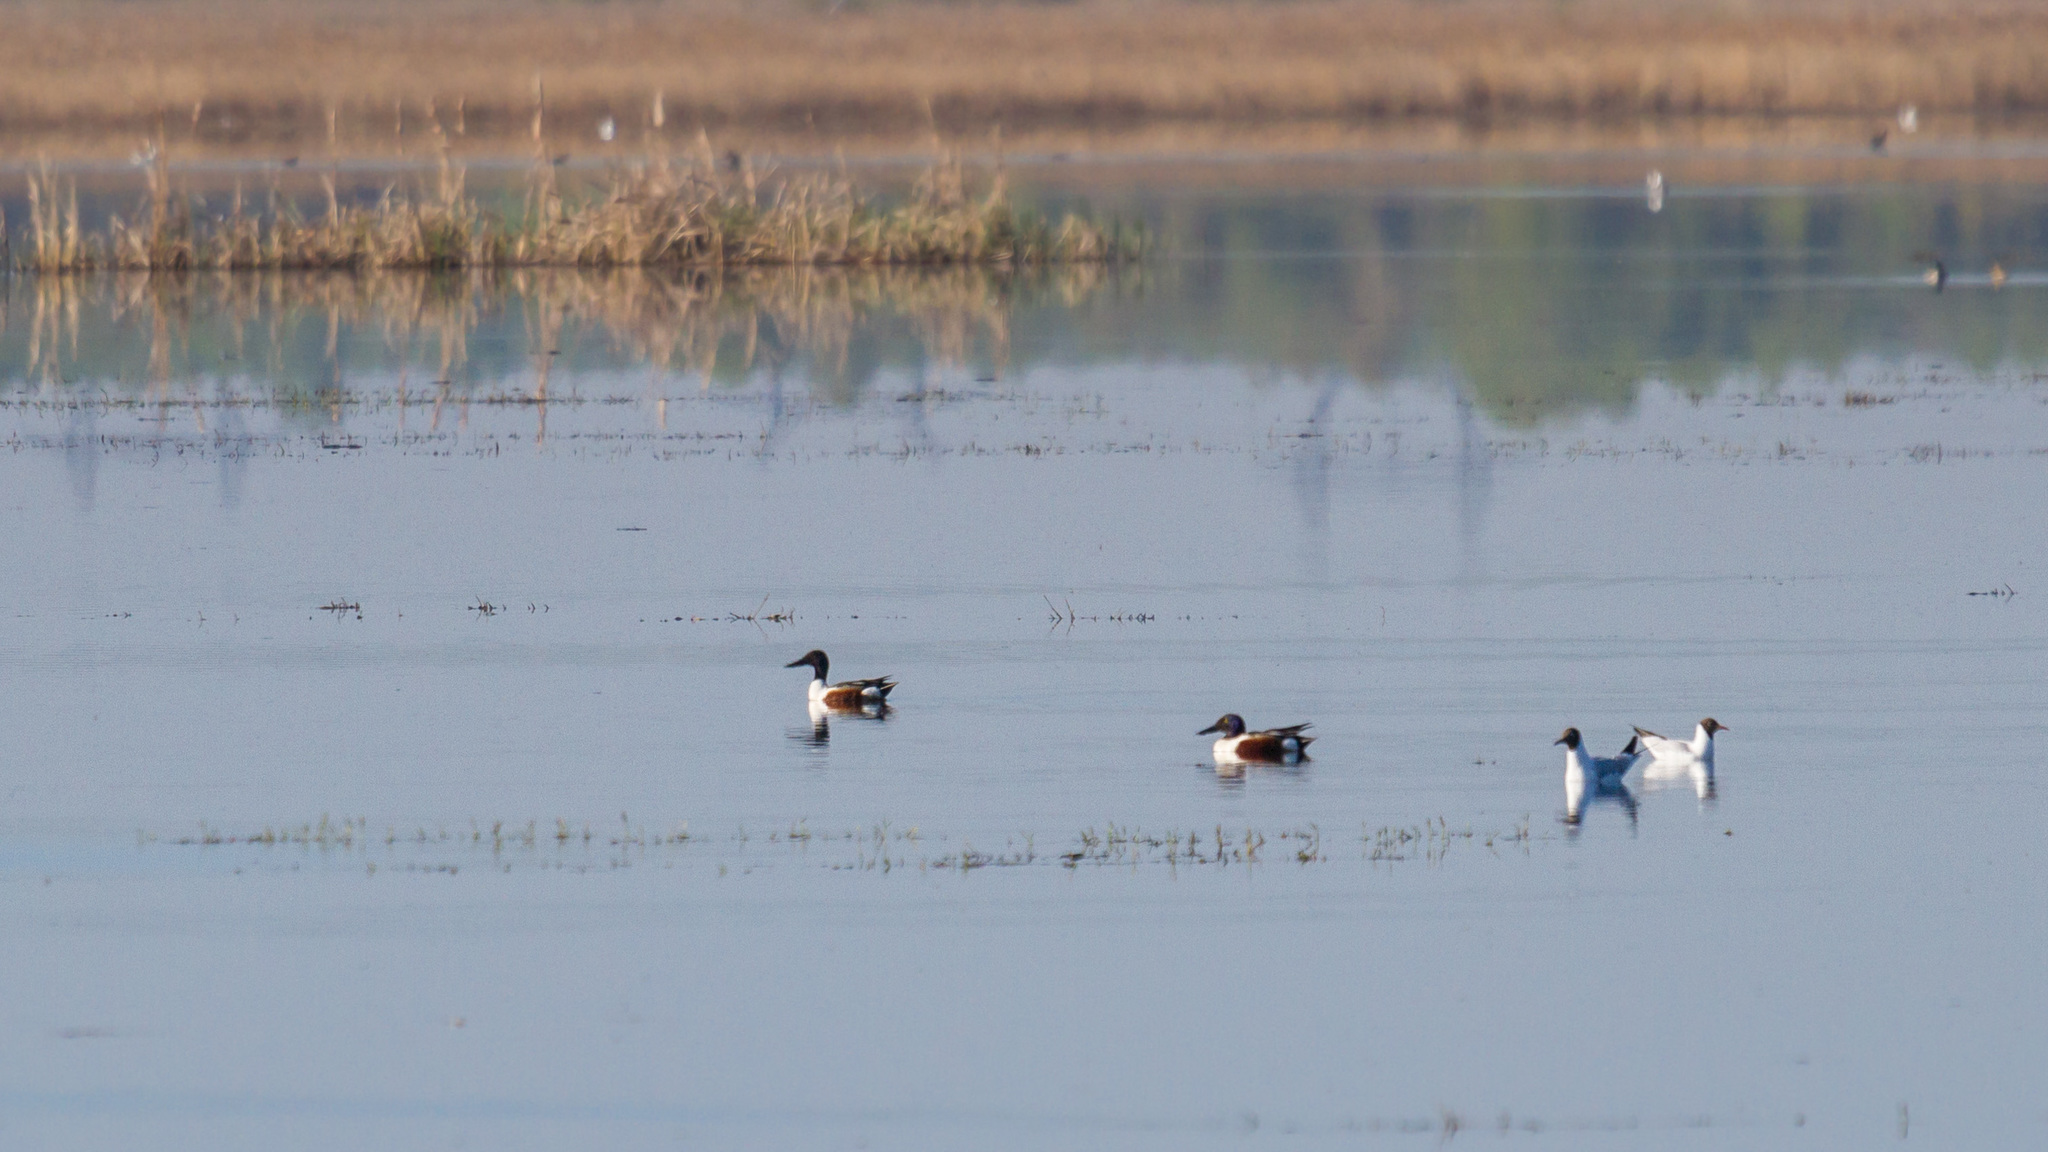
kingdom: Animalia
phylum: Chordata
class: Aves
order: Anseriformes
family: Anatidae
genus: Spatula
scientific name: Spatula clypeata
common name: Northern shoveler
